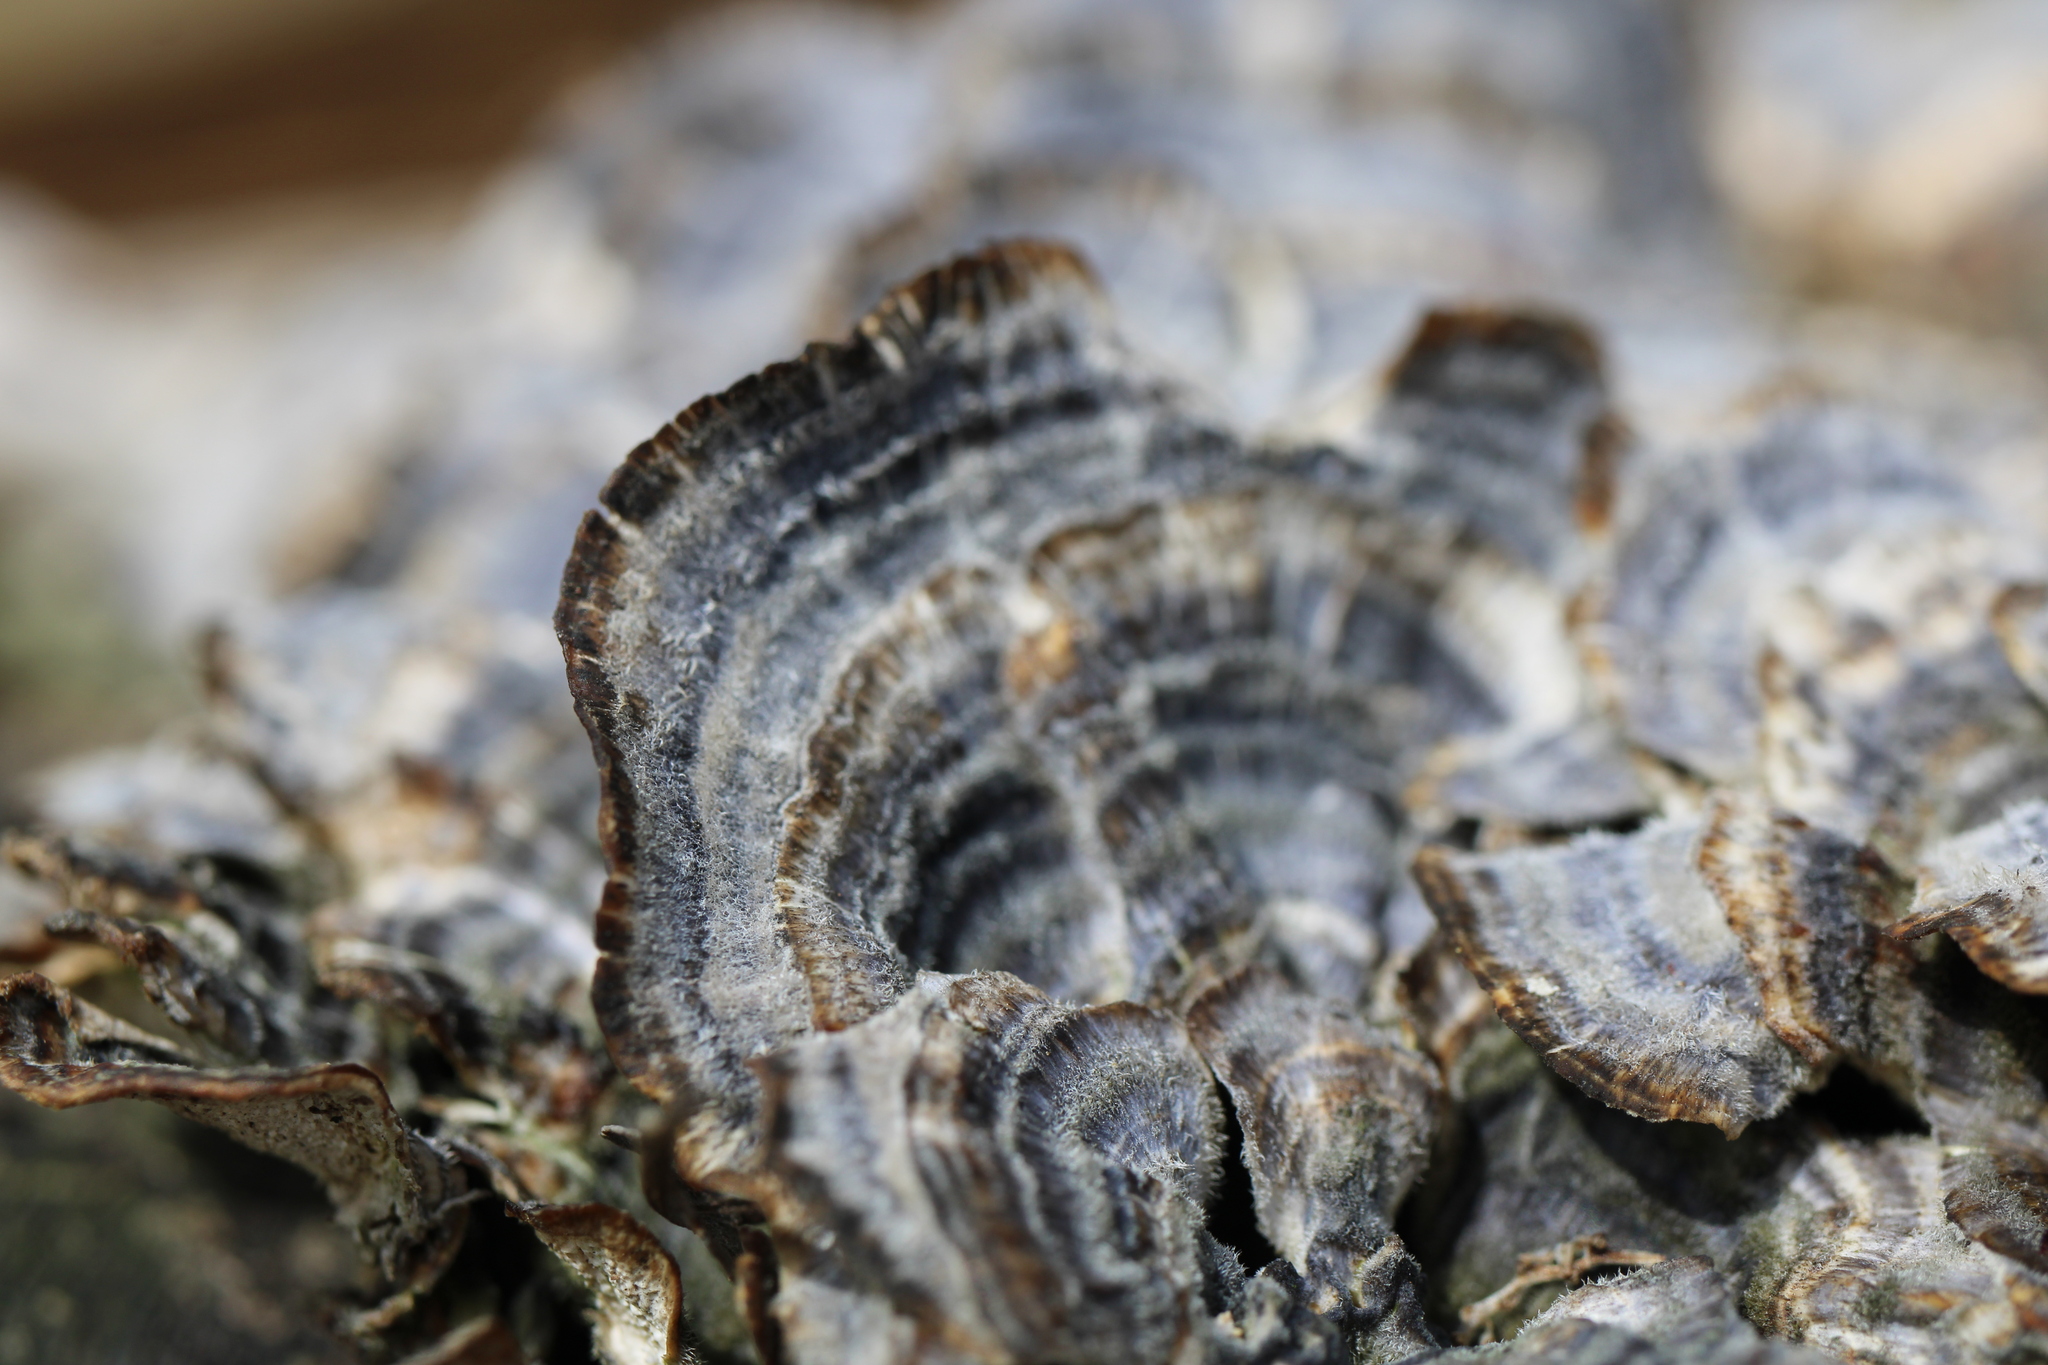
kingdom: Fungi
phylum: Basidiomycota
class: Agaricomycetes
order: Polyporales
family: Polyporaceae
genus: Trametes
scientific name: Trametes versicolor
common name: Turkeytail
